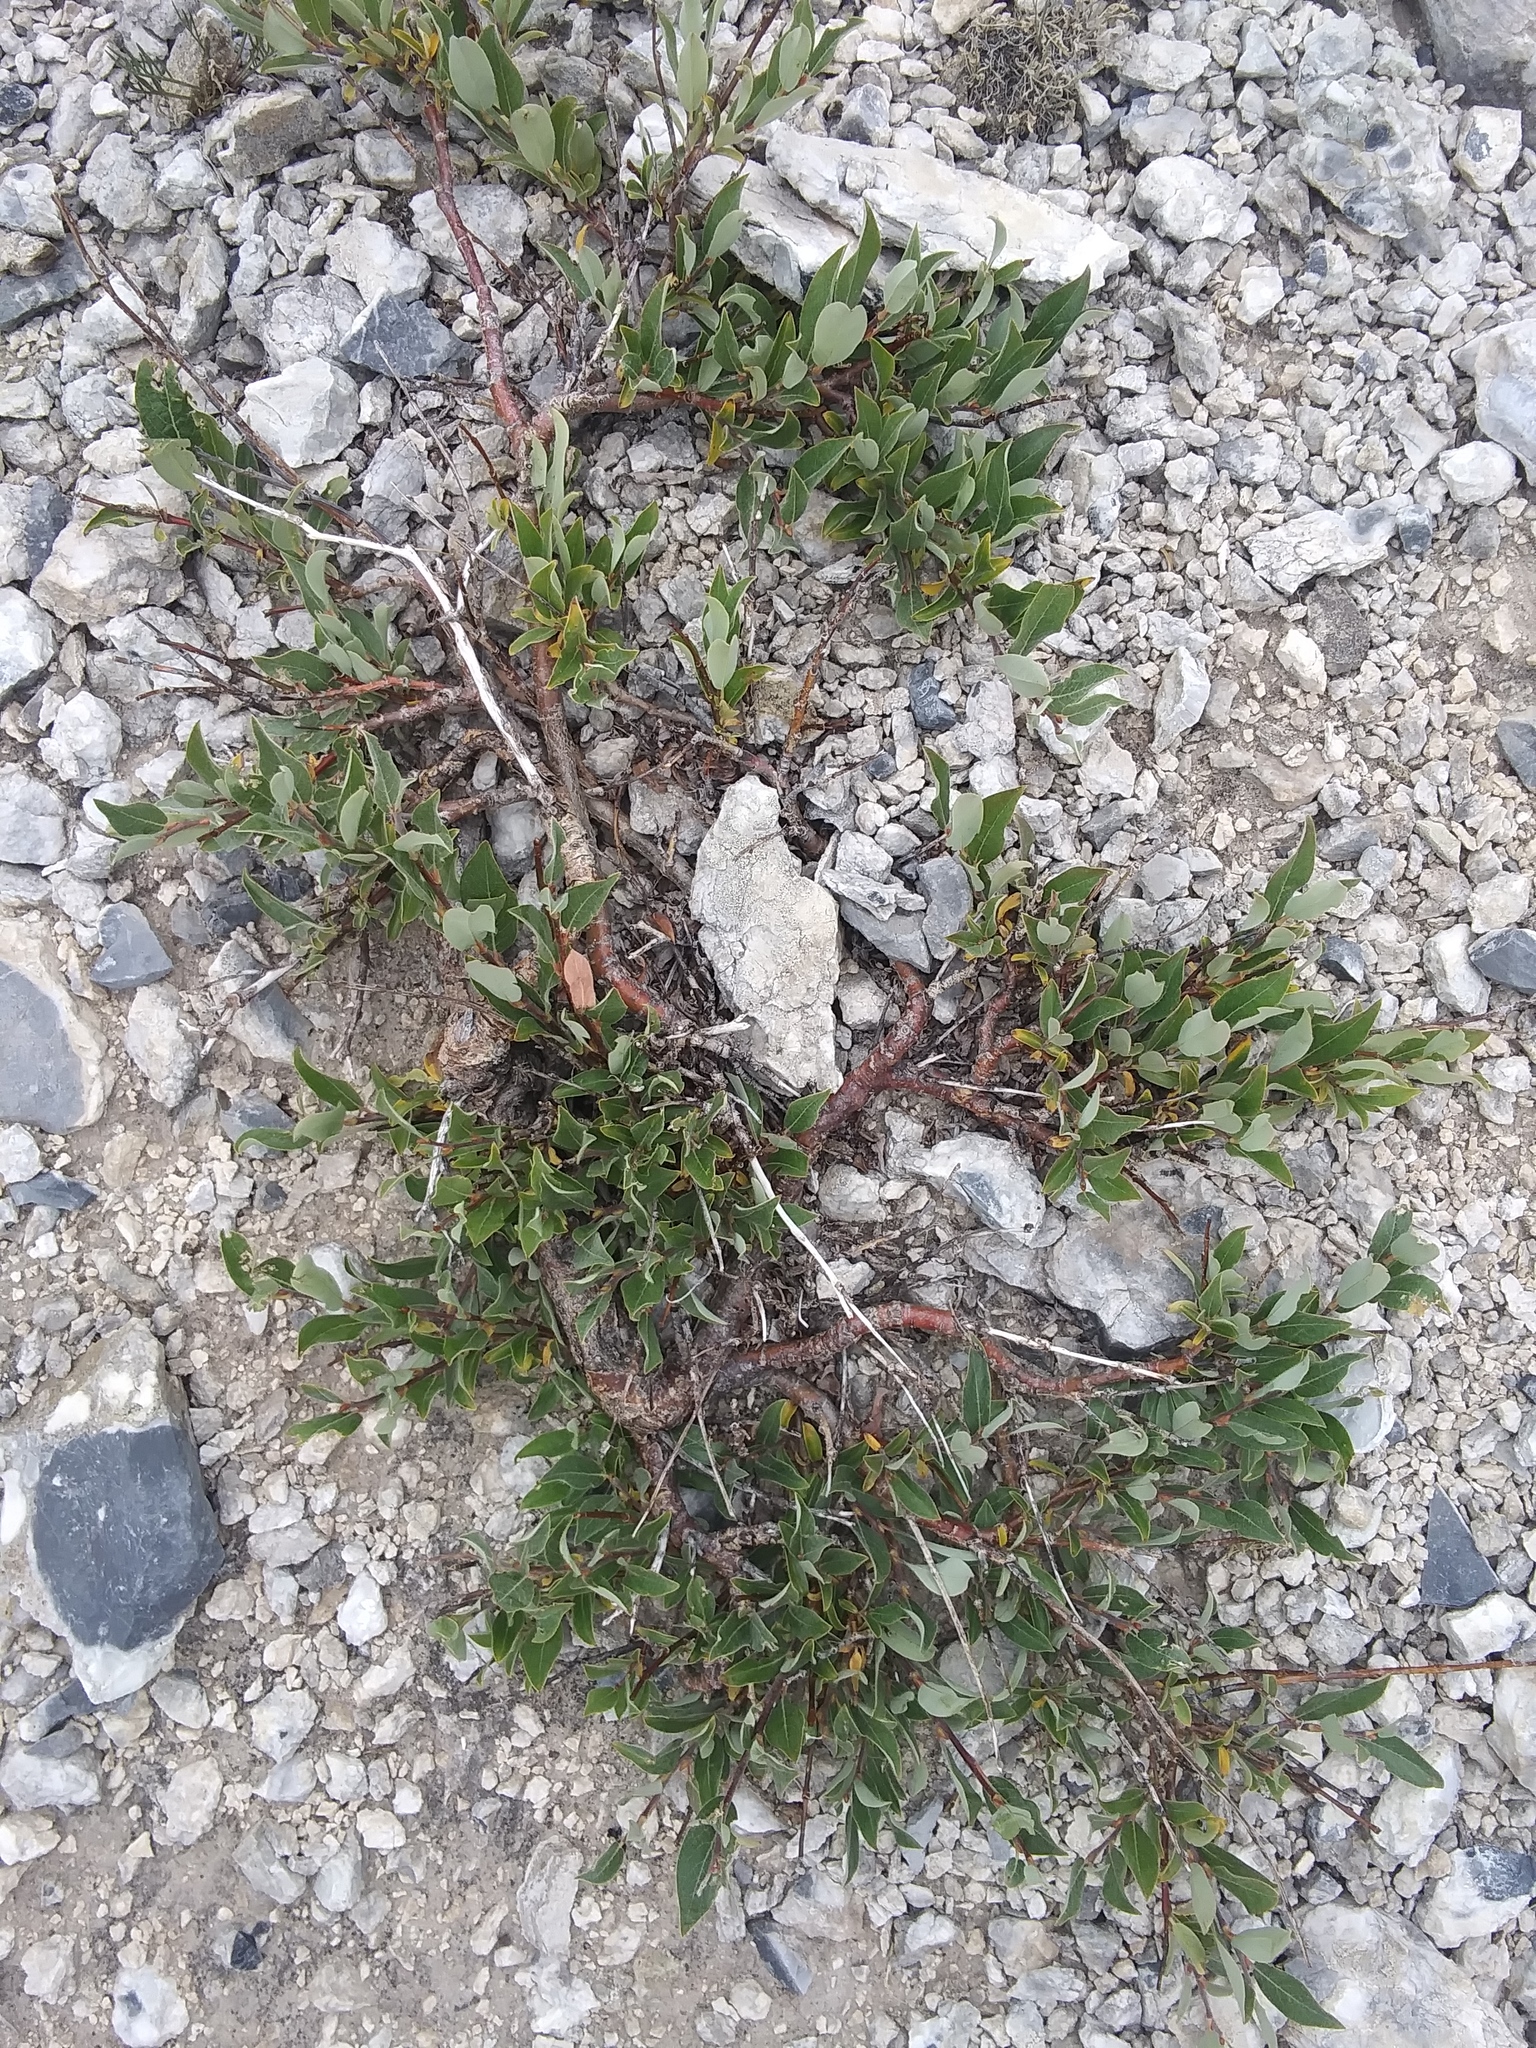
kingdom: Plantae
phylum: Tracheophyta
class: Magnoliopsida
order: Malpighiales
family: Salicaceae
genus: Salix
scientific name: Salix petrophila
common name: Rocky mountain willow
